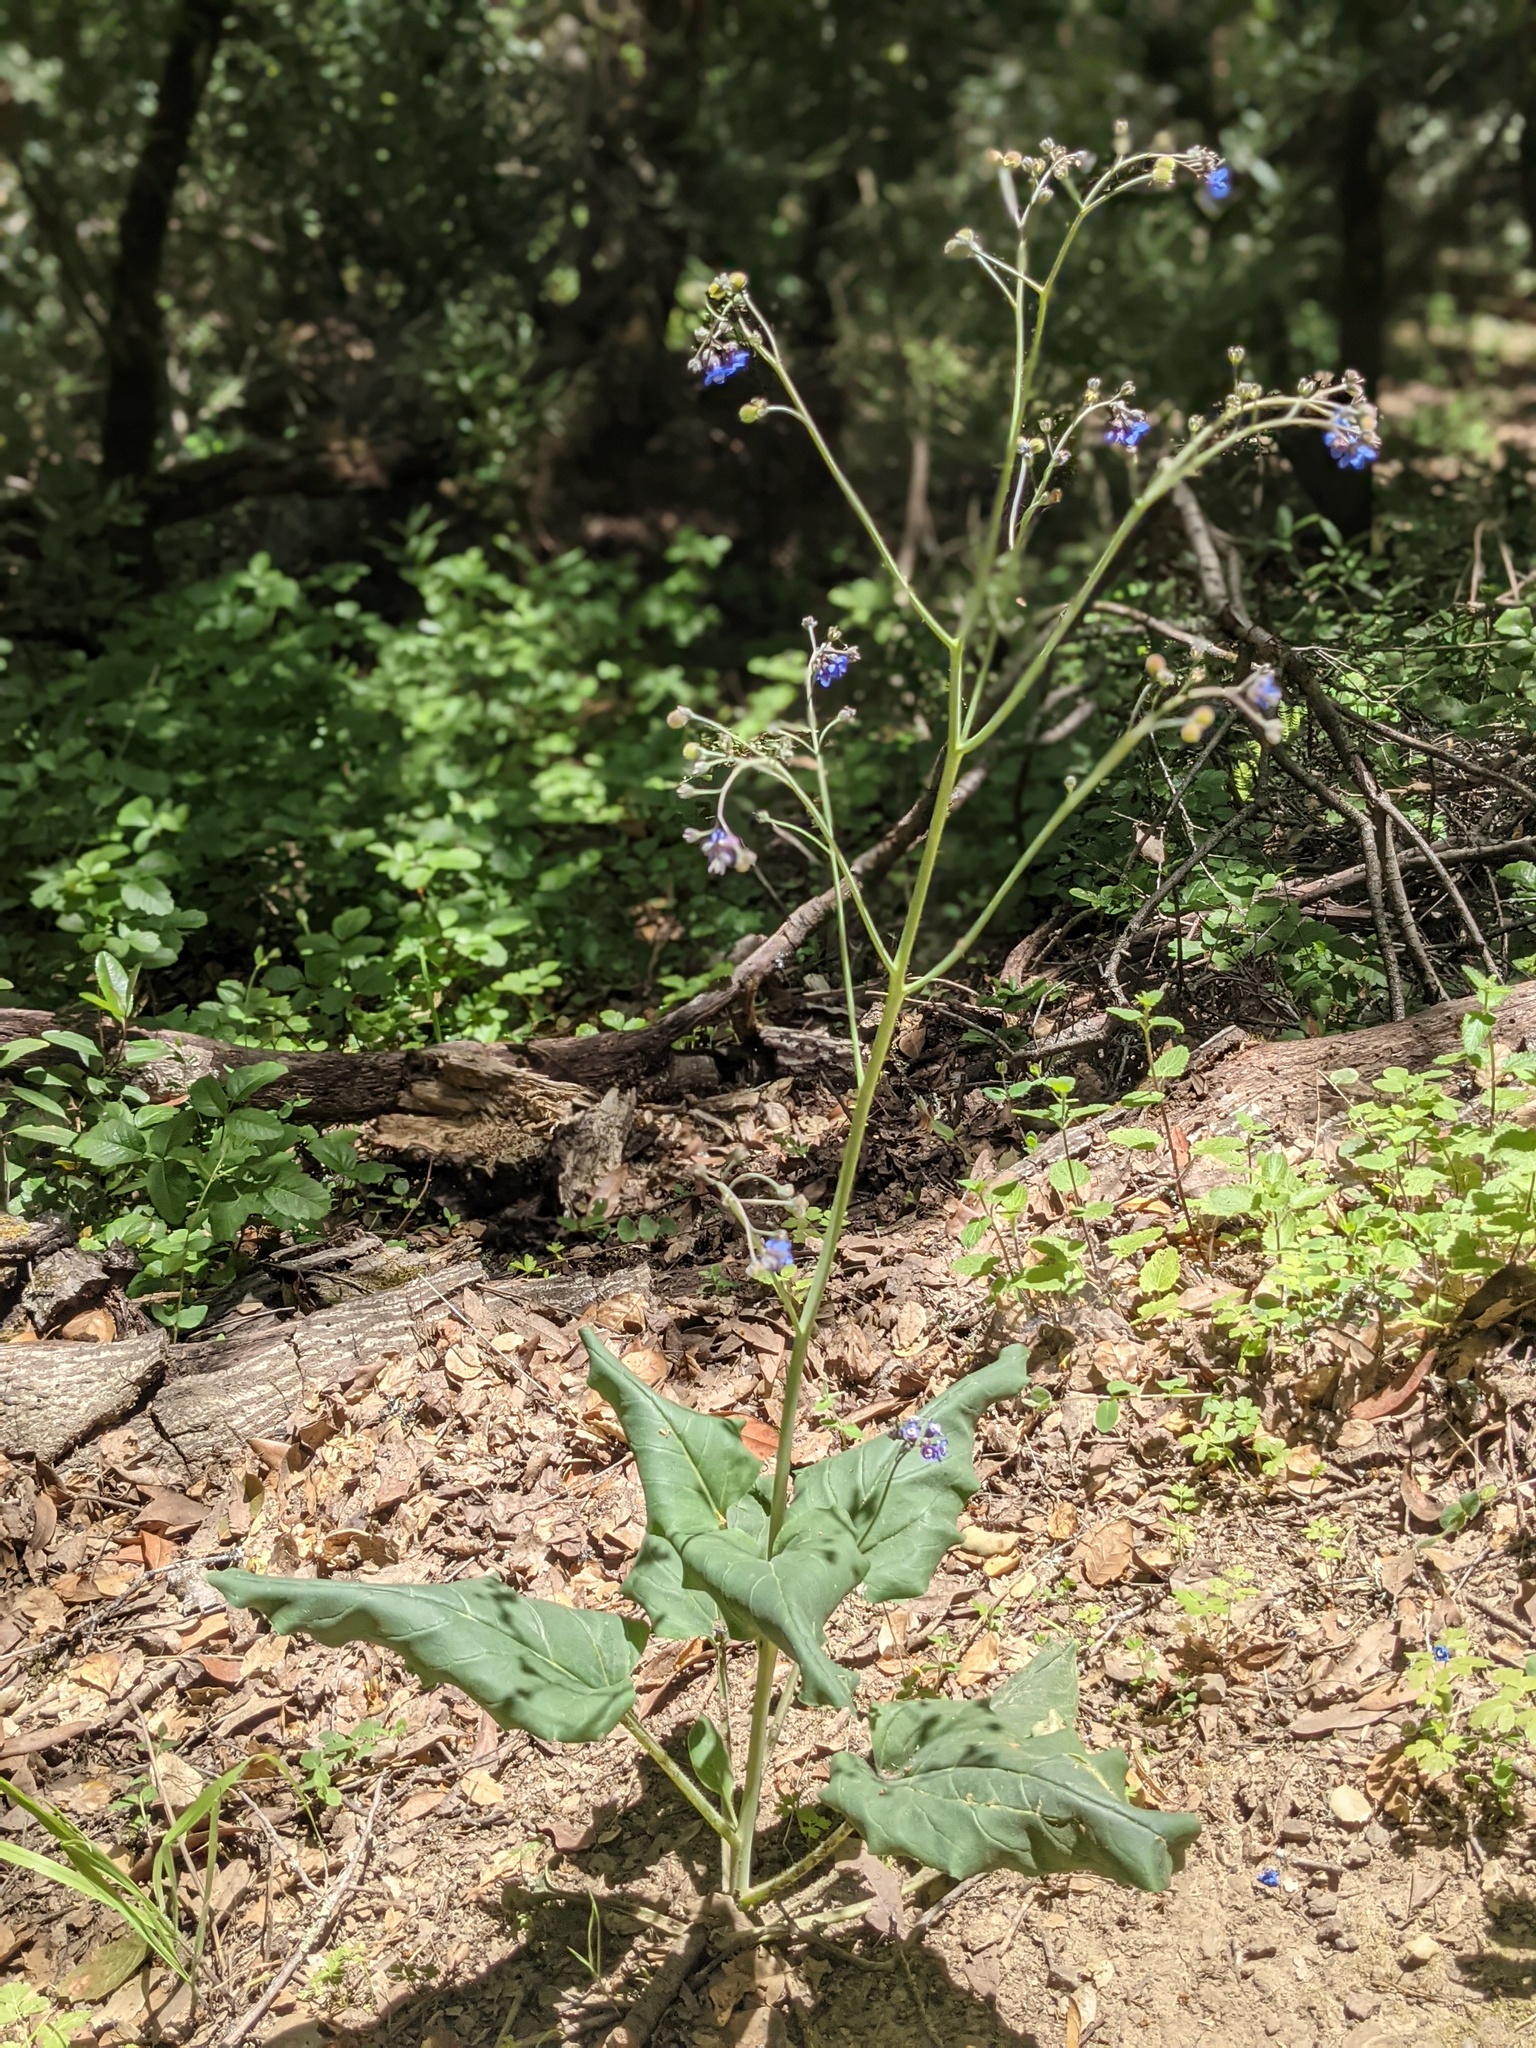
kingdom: Plantae
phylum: Tracheophyta
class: Magnoliopsida
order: Boraginales
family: Boraginaceae
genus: Adelinia
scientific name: Adelinia grande
